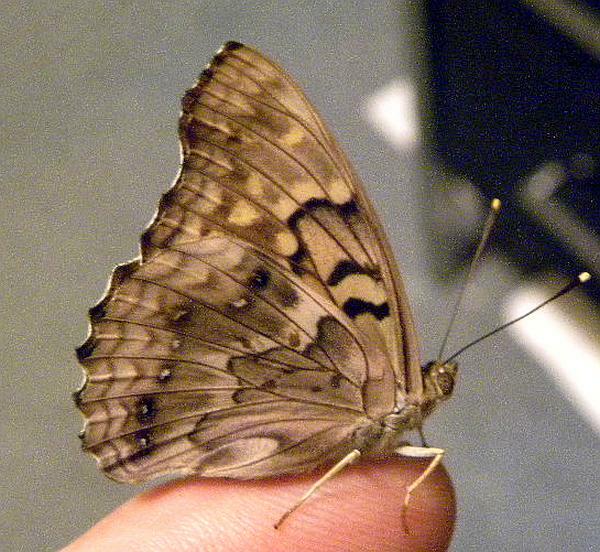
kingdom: Animalia
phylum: Arthropoda
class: Insecta
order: Lepidoptera
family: Nymphalidae
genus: Asterocampa
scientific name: Asterocampa clyton
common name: Tawny emperor
